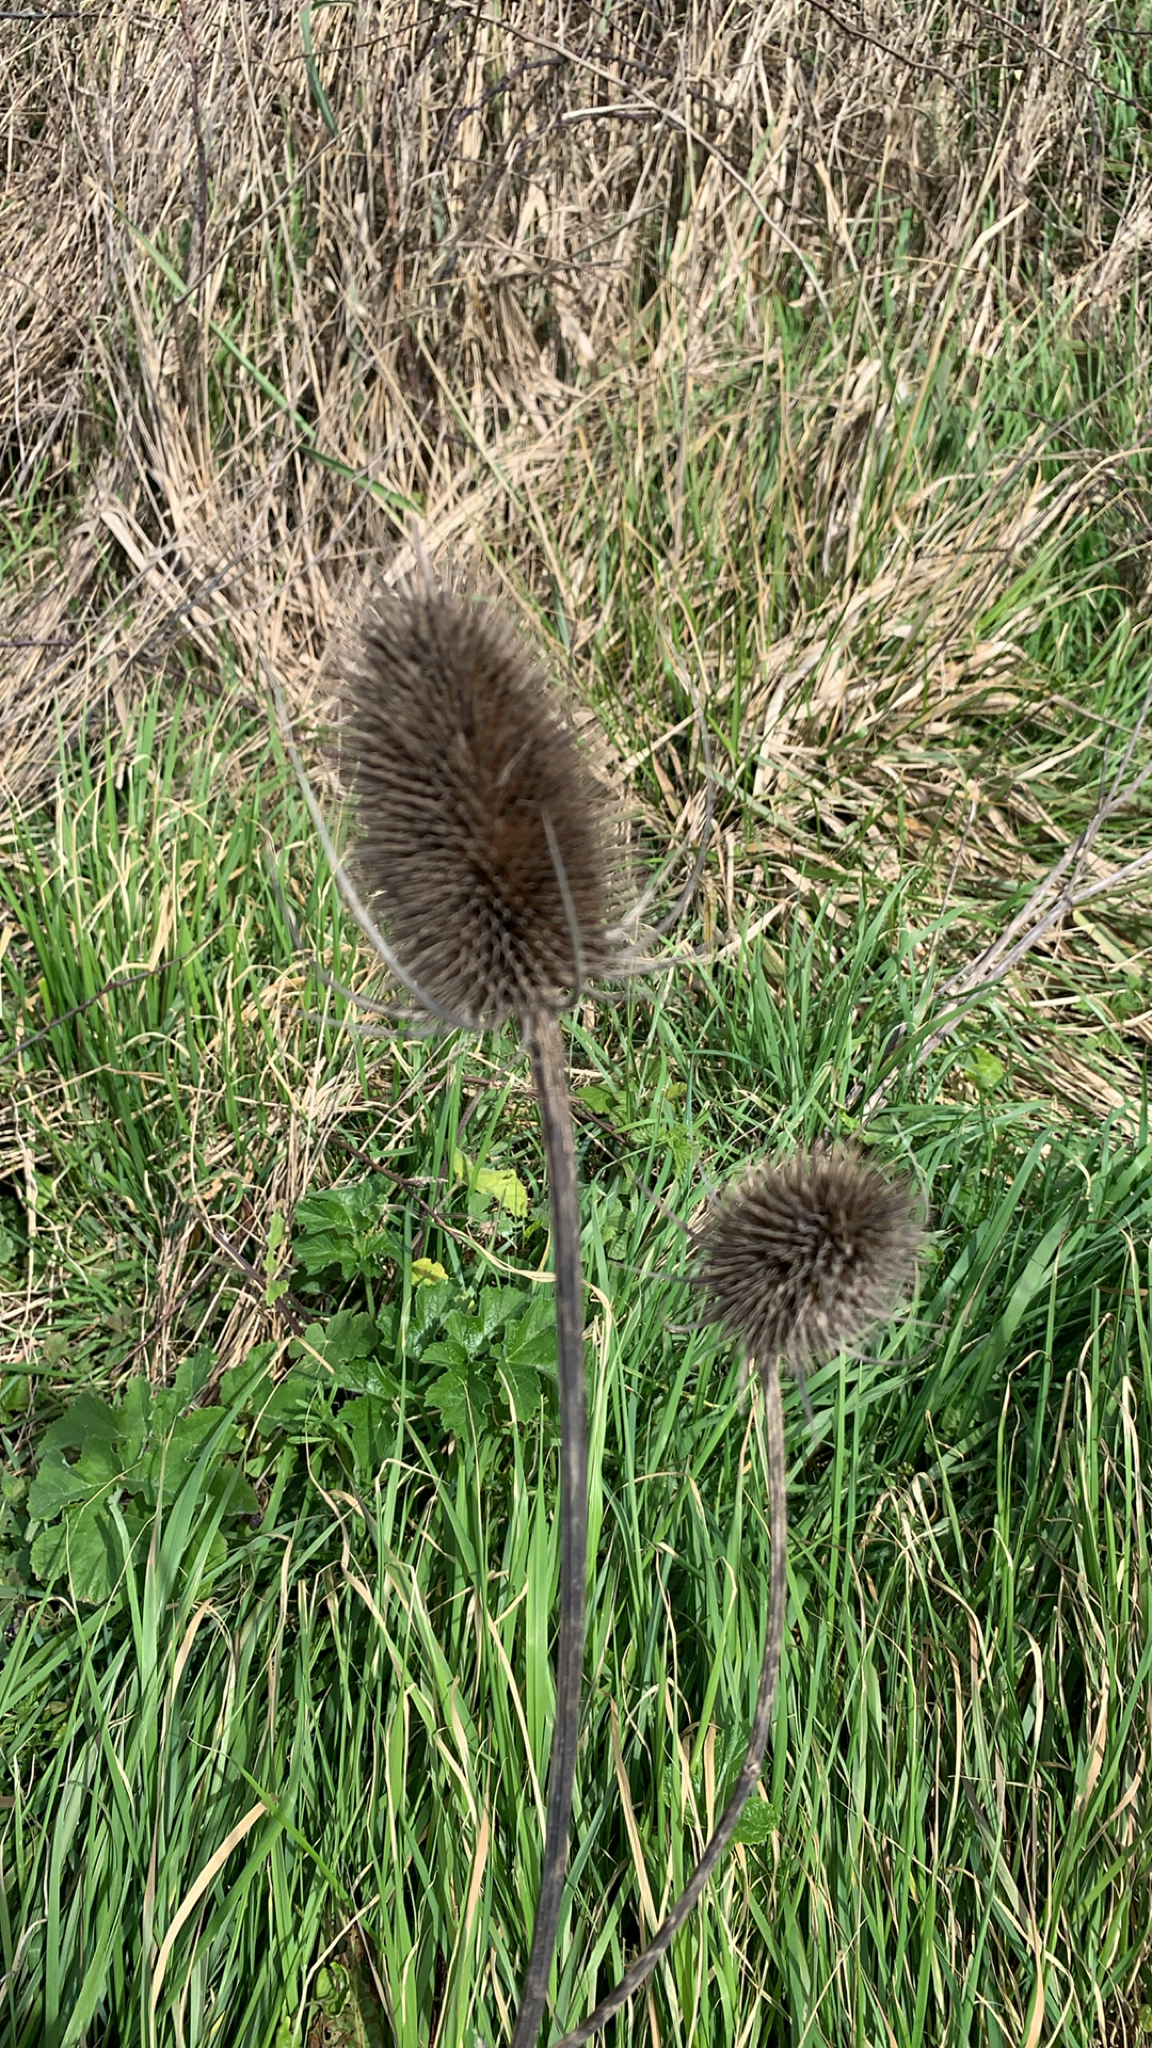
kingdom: Plantae
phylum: Tracheophyta
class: Magnoliopsida
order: Dipsacales
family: Caprifoliaceae
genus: Dipsacus
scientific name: Dipsacus fullonum
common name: Teasel
